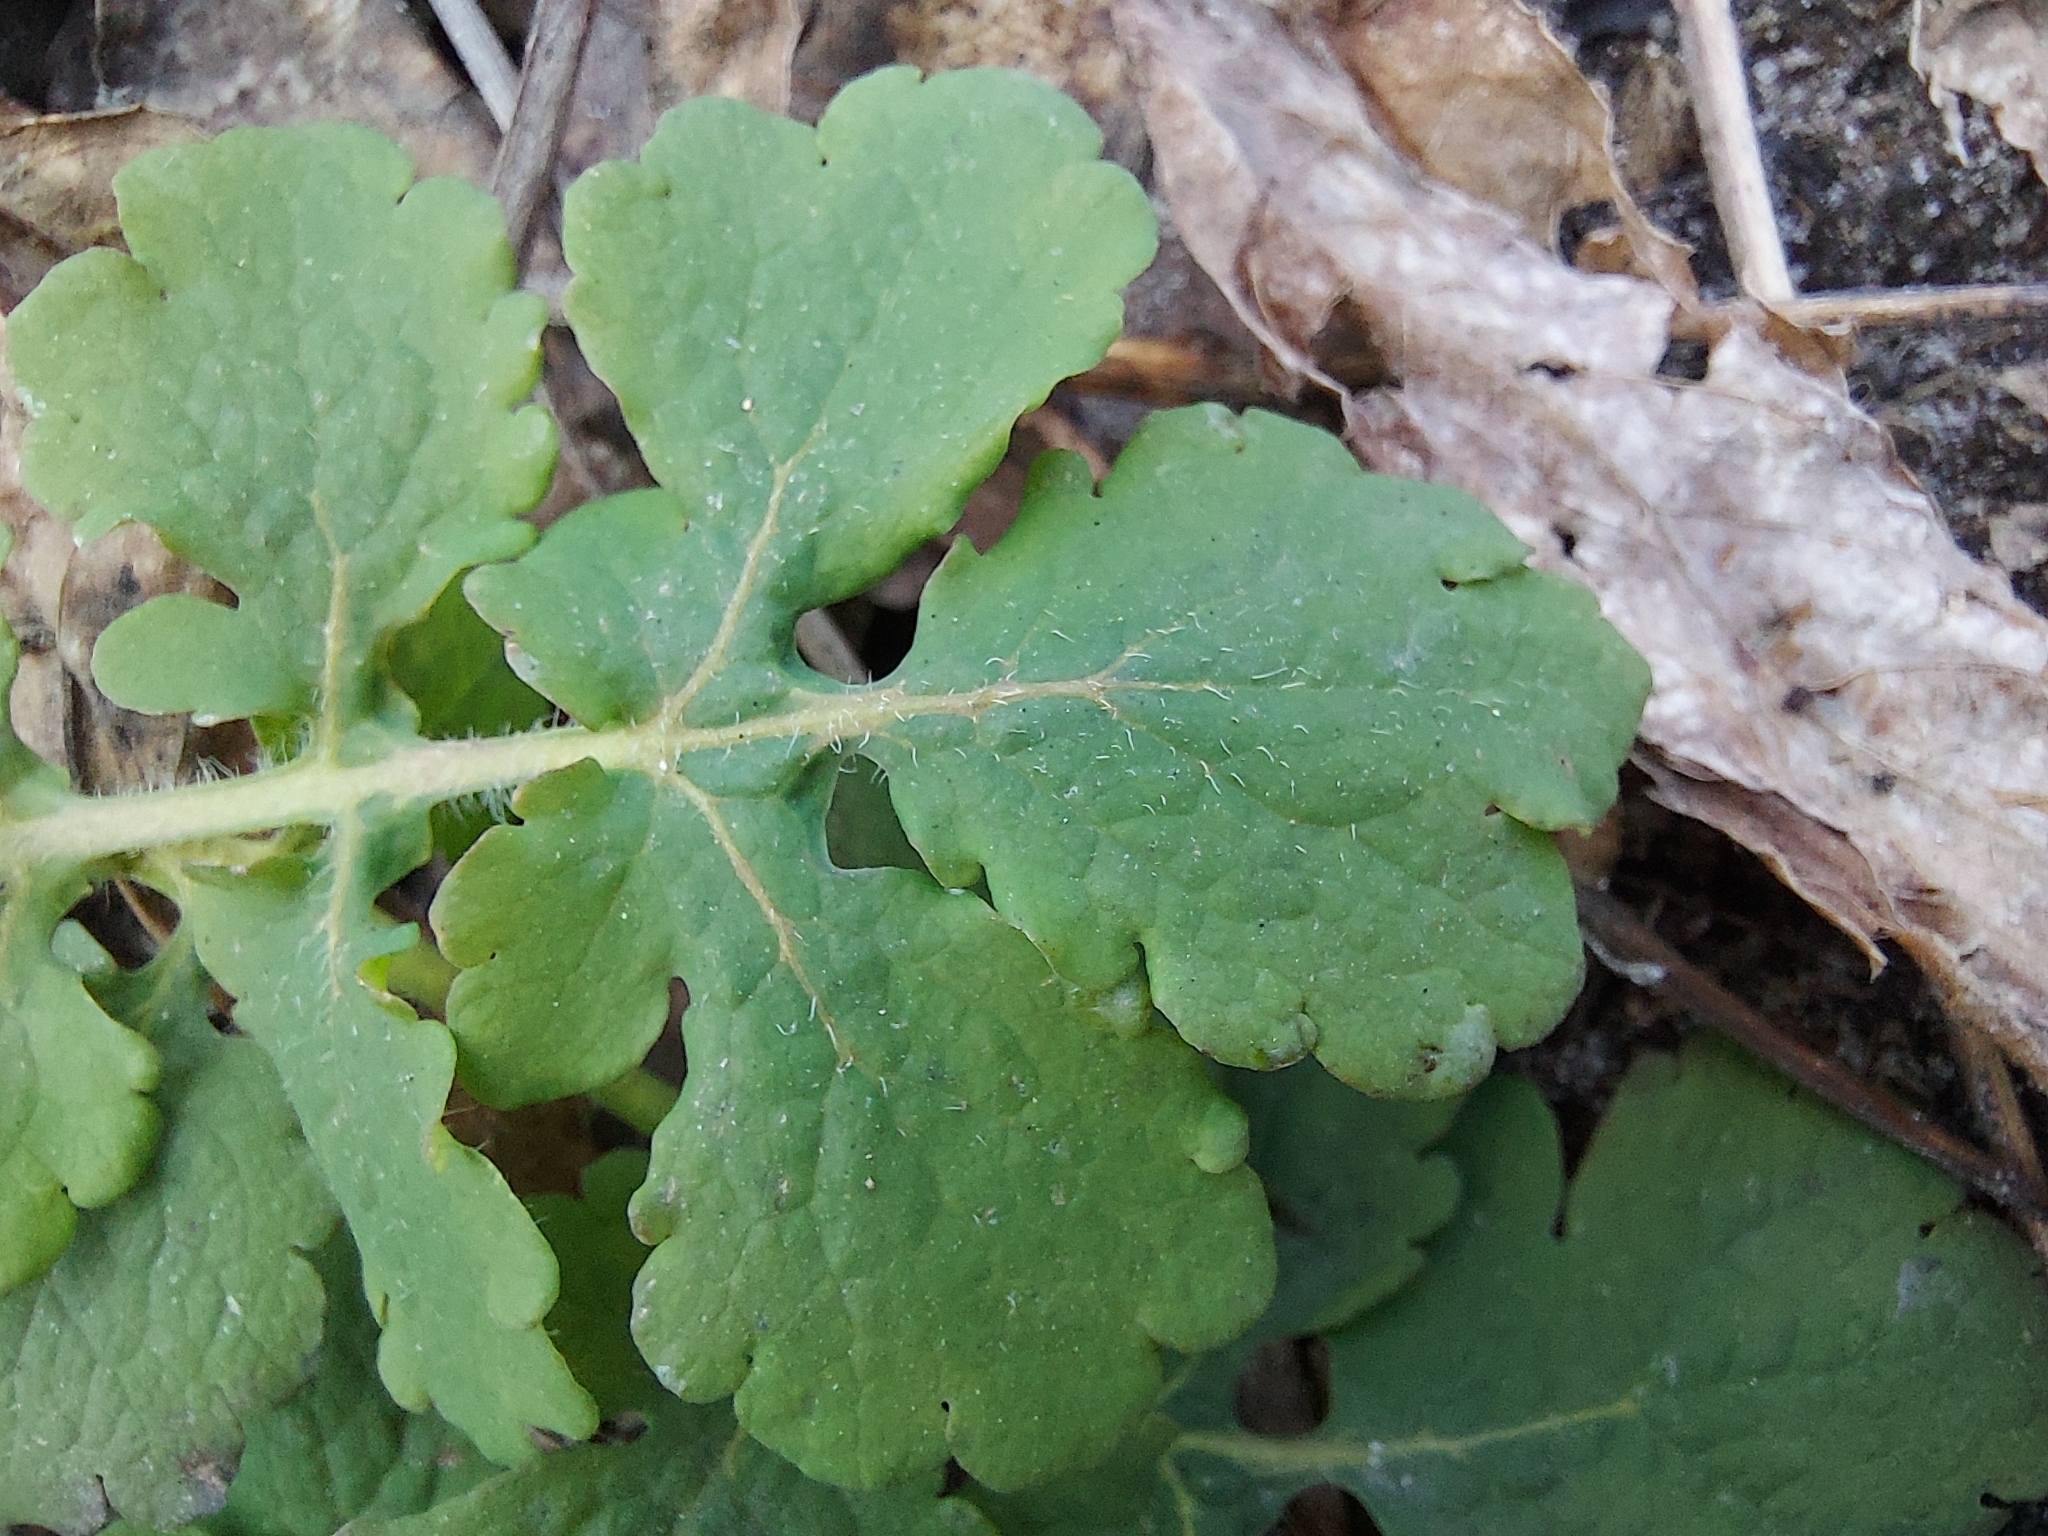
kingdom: Plantae
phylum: Tracheophyta
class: Magnoliopsida
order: Ranunculales
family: Papaveraceae
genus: Chelidonium
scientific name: Chelidonium majus
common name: Greater celandine
